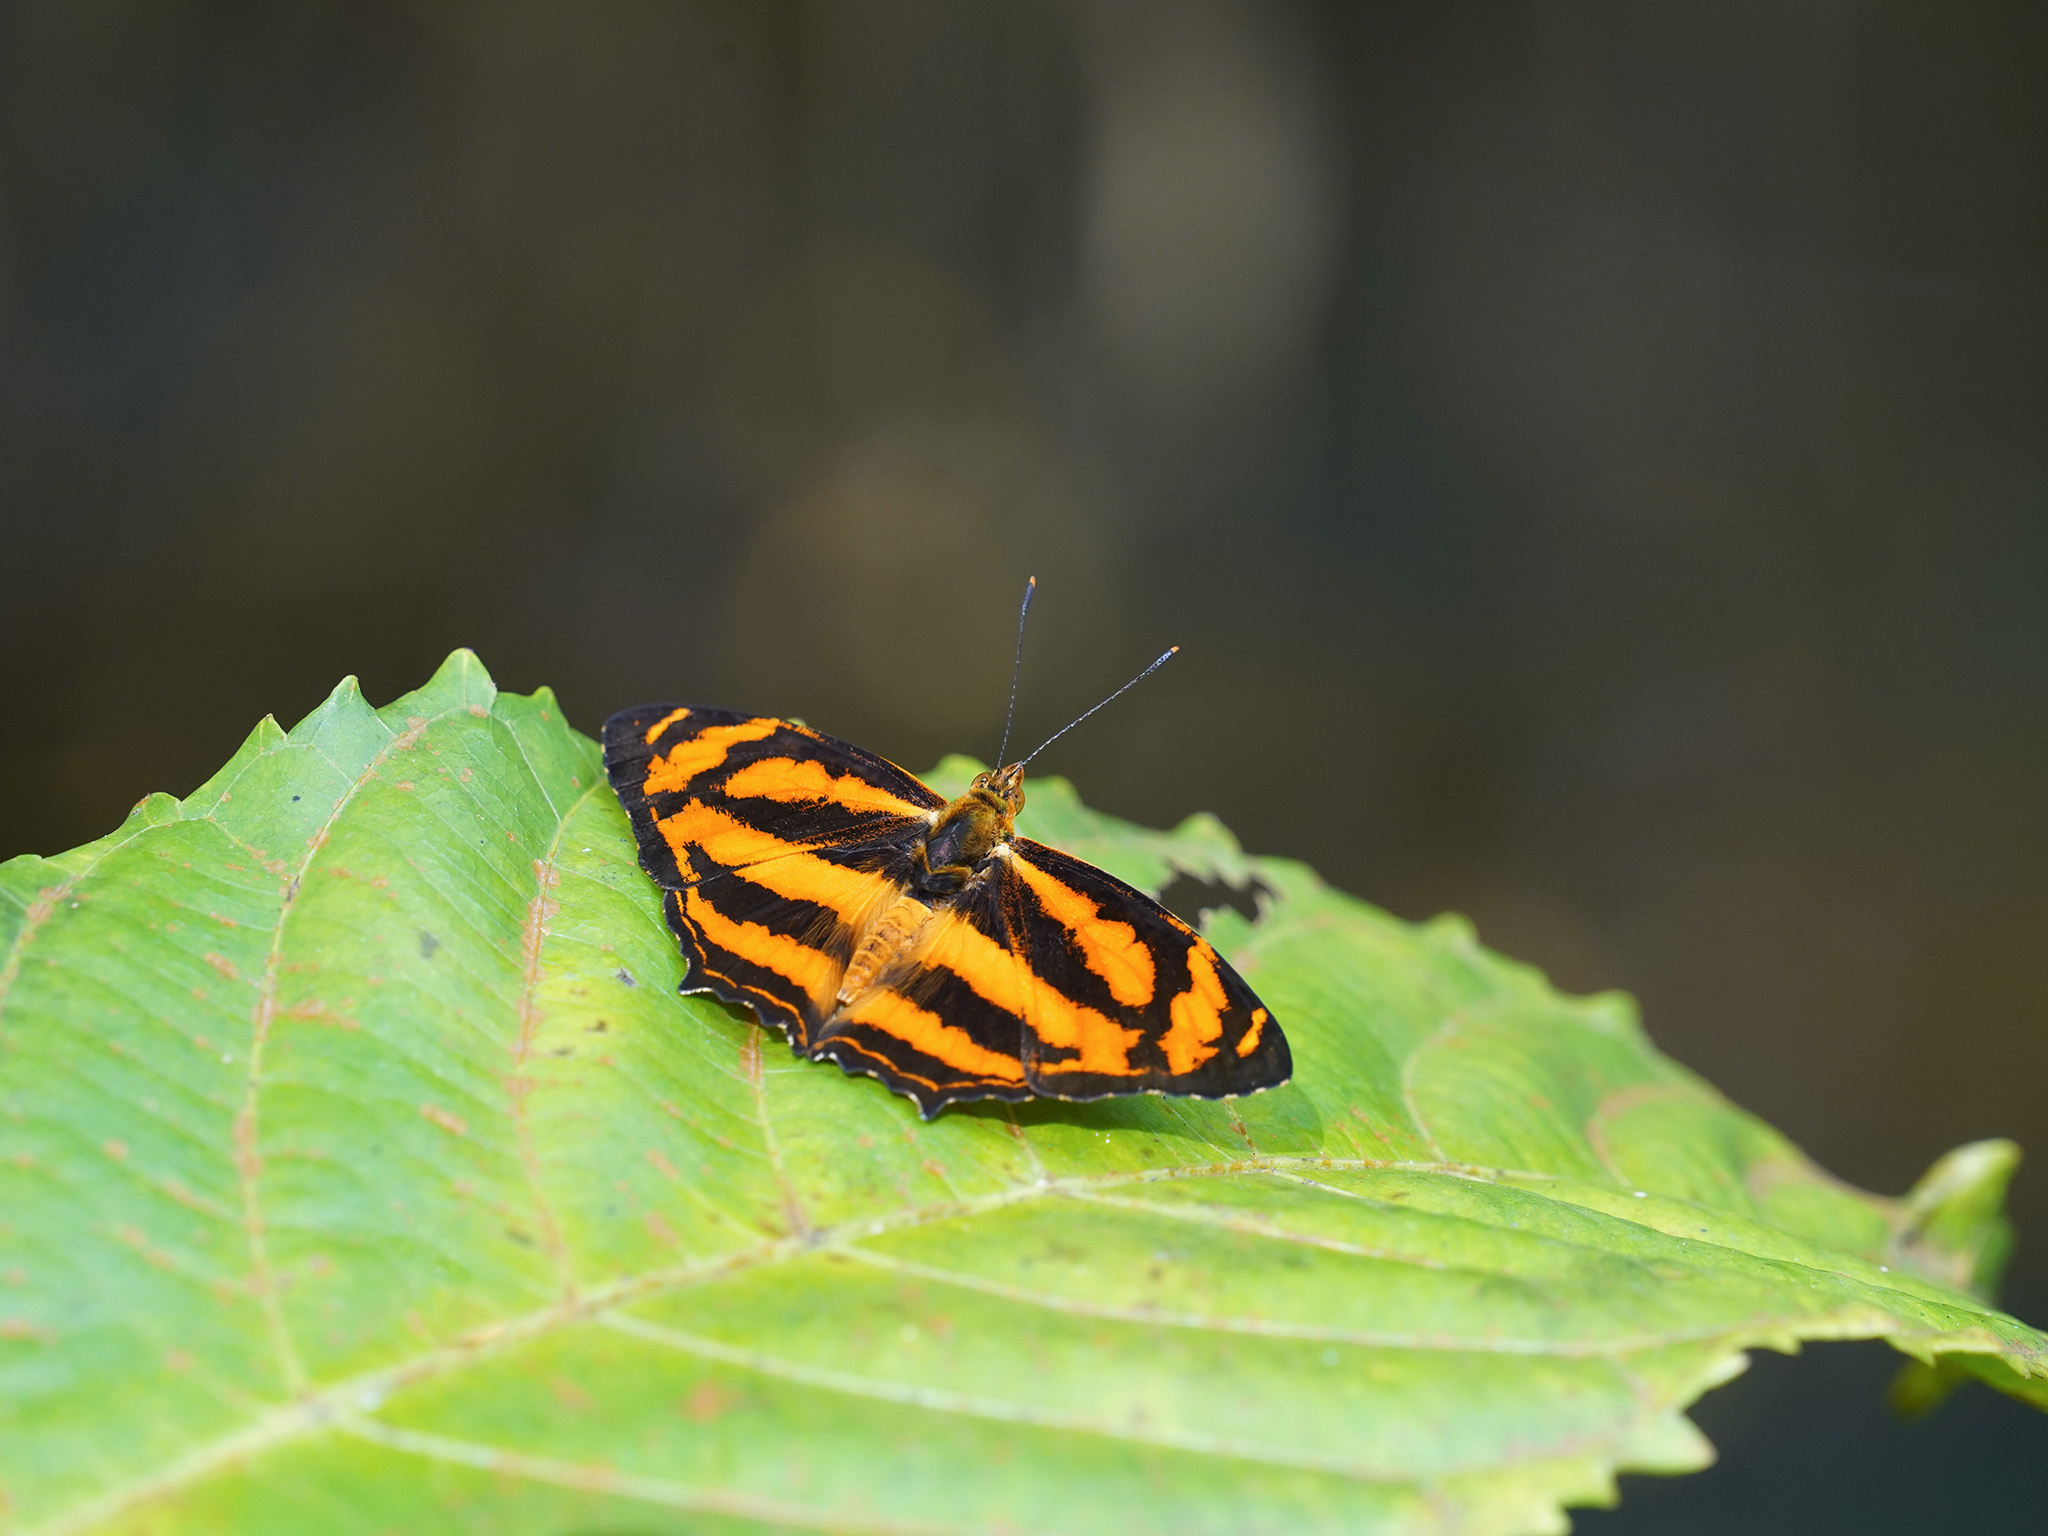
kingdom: Animalia
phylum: Arthropoda
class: Insecta
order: Lepidoptera
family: Nymphalidae
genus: Symbrenthia
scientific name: Symbrenthia hippoclus
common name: Common jester
